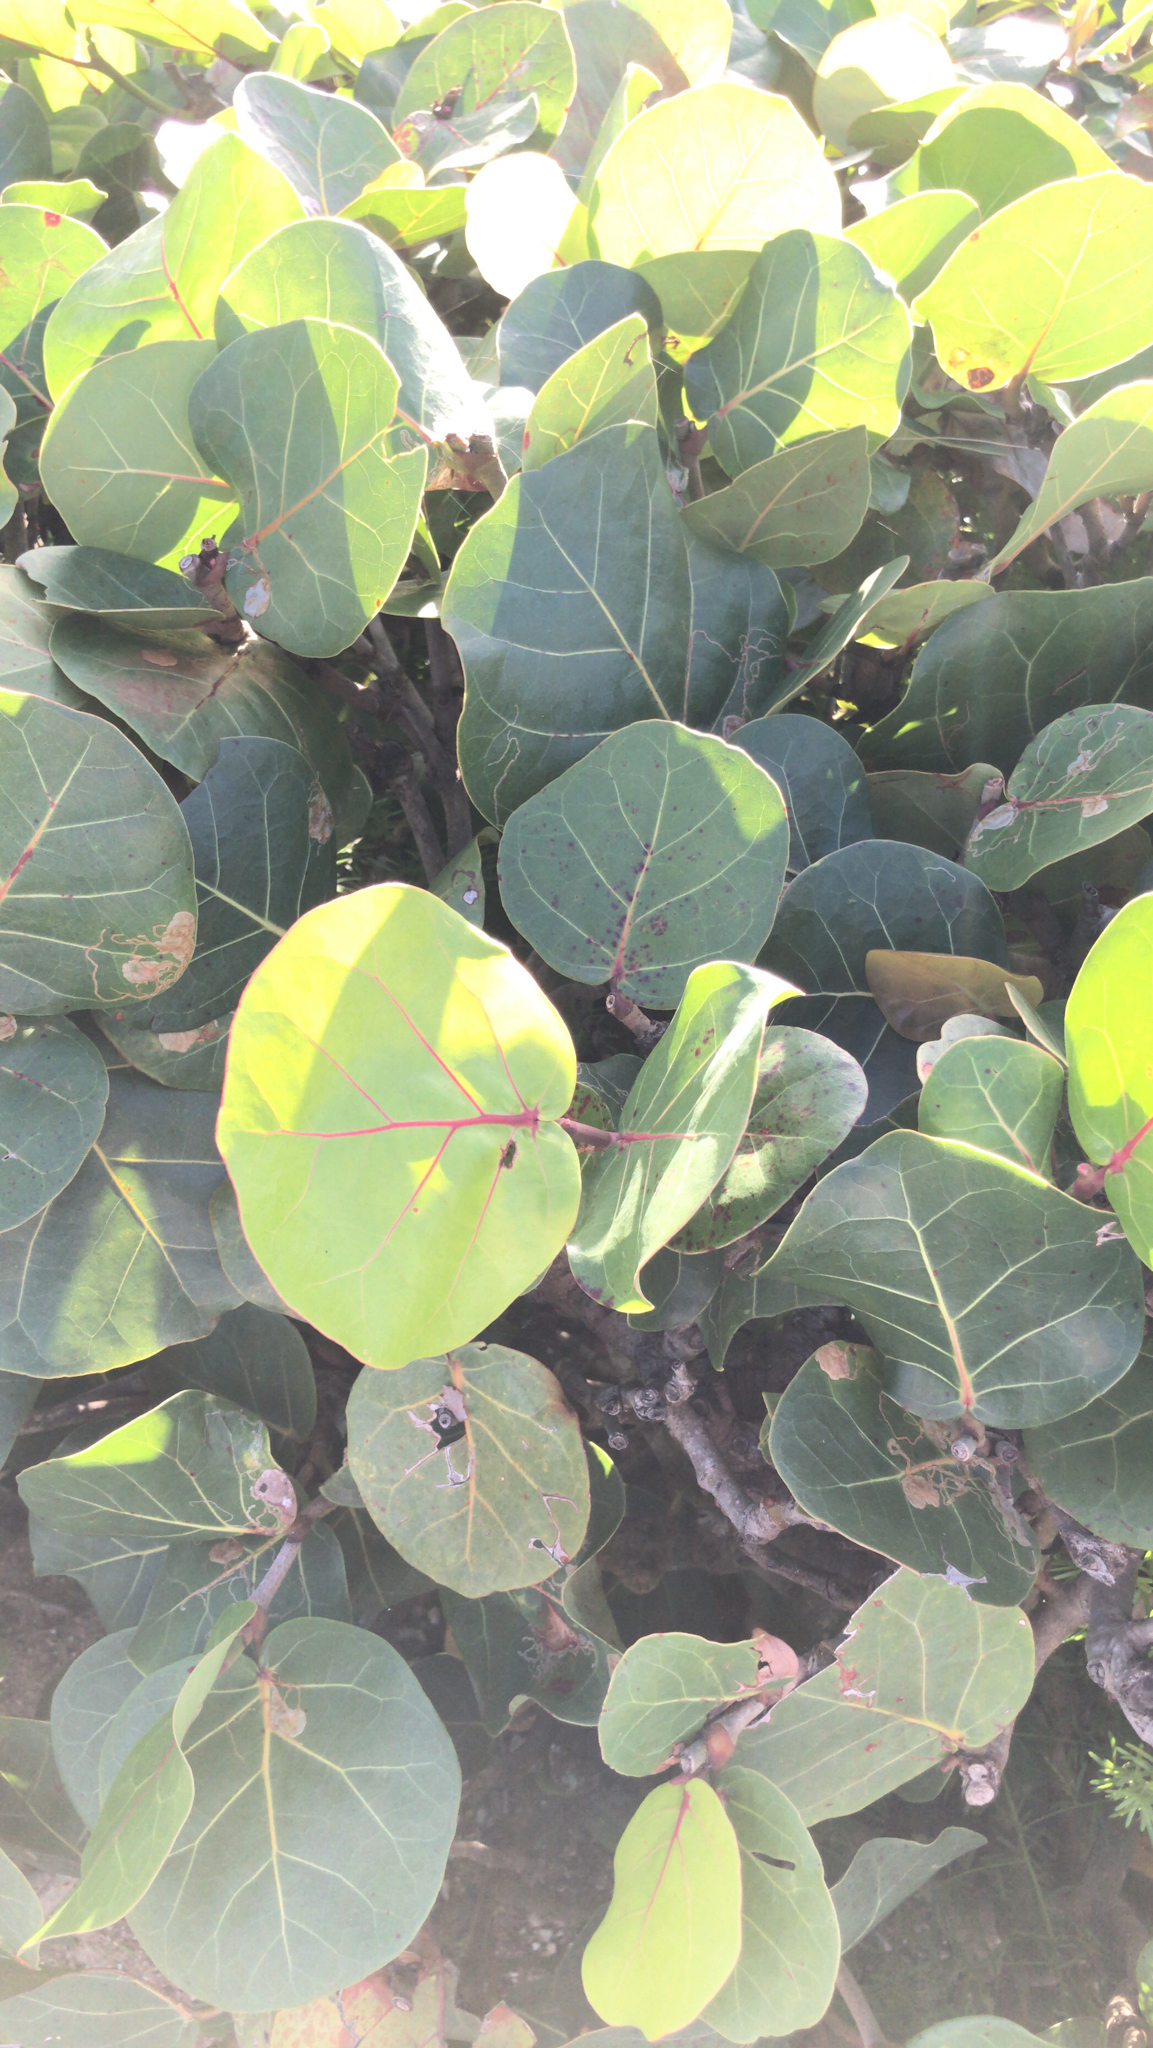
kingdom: Plantae
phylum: Tracheophyta
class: Magnoliopsida
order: Caryophyllales
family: Polygonaceae
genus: Coccoloba
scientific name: Coccoloba uvifera
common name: Seagrape
